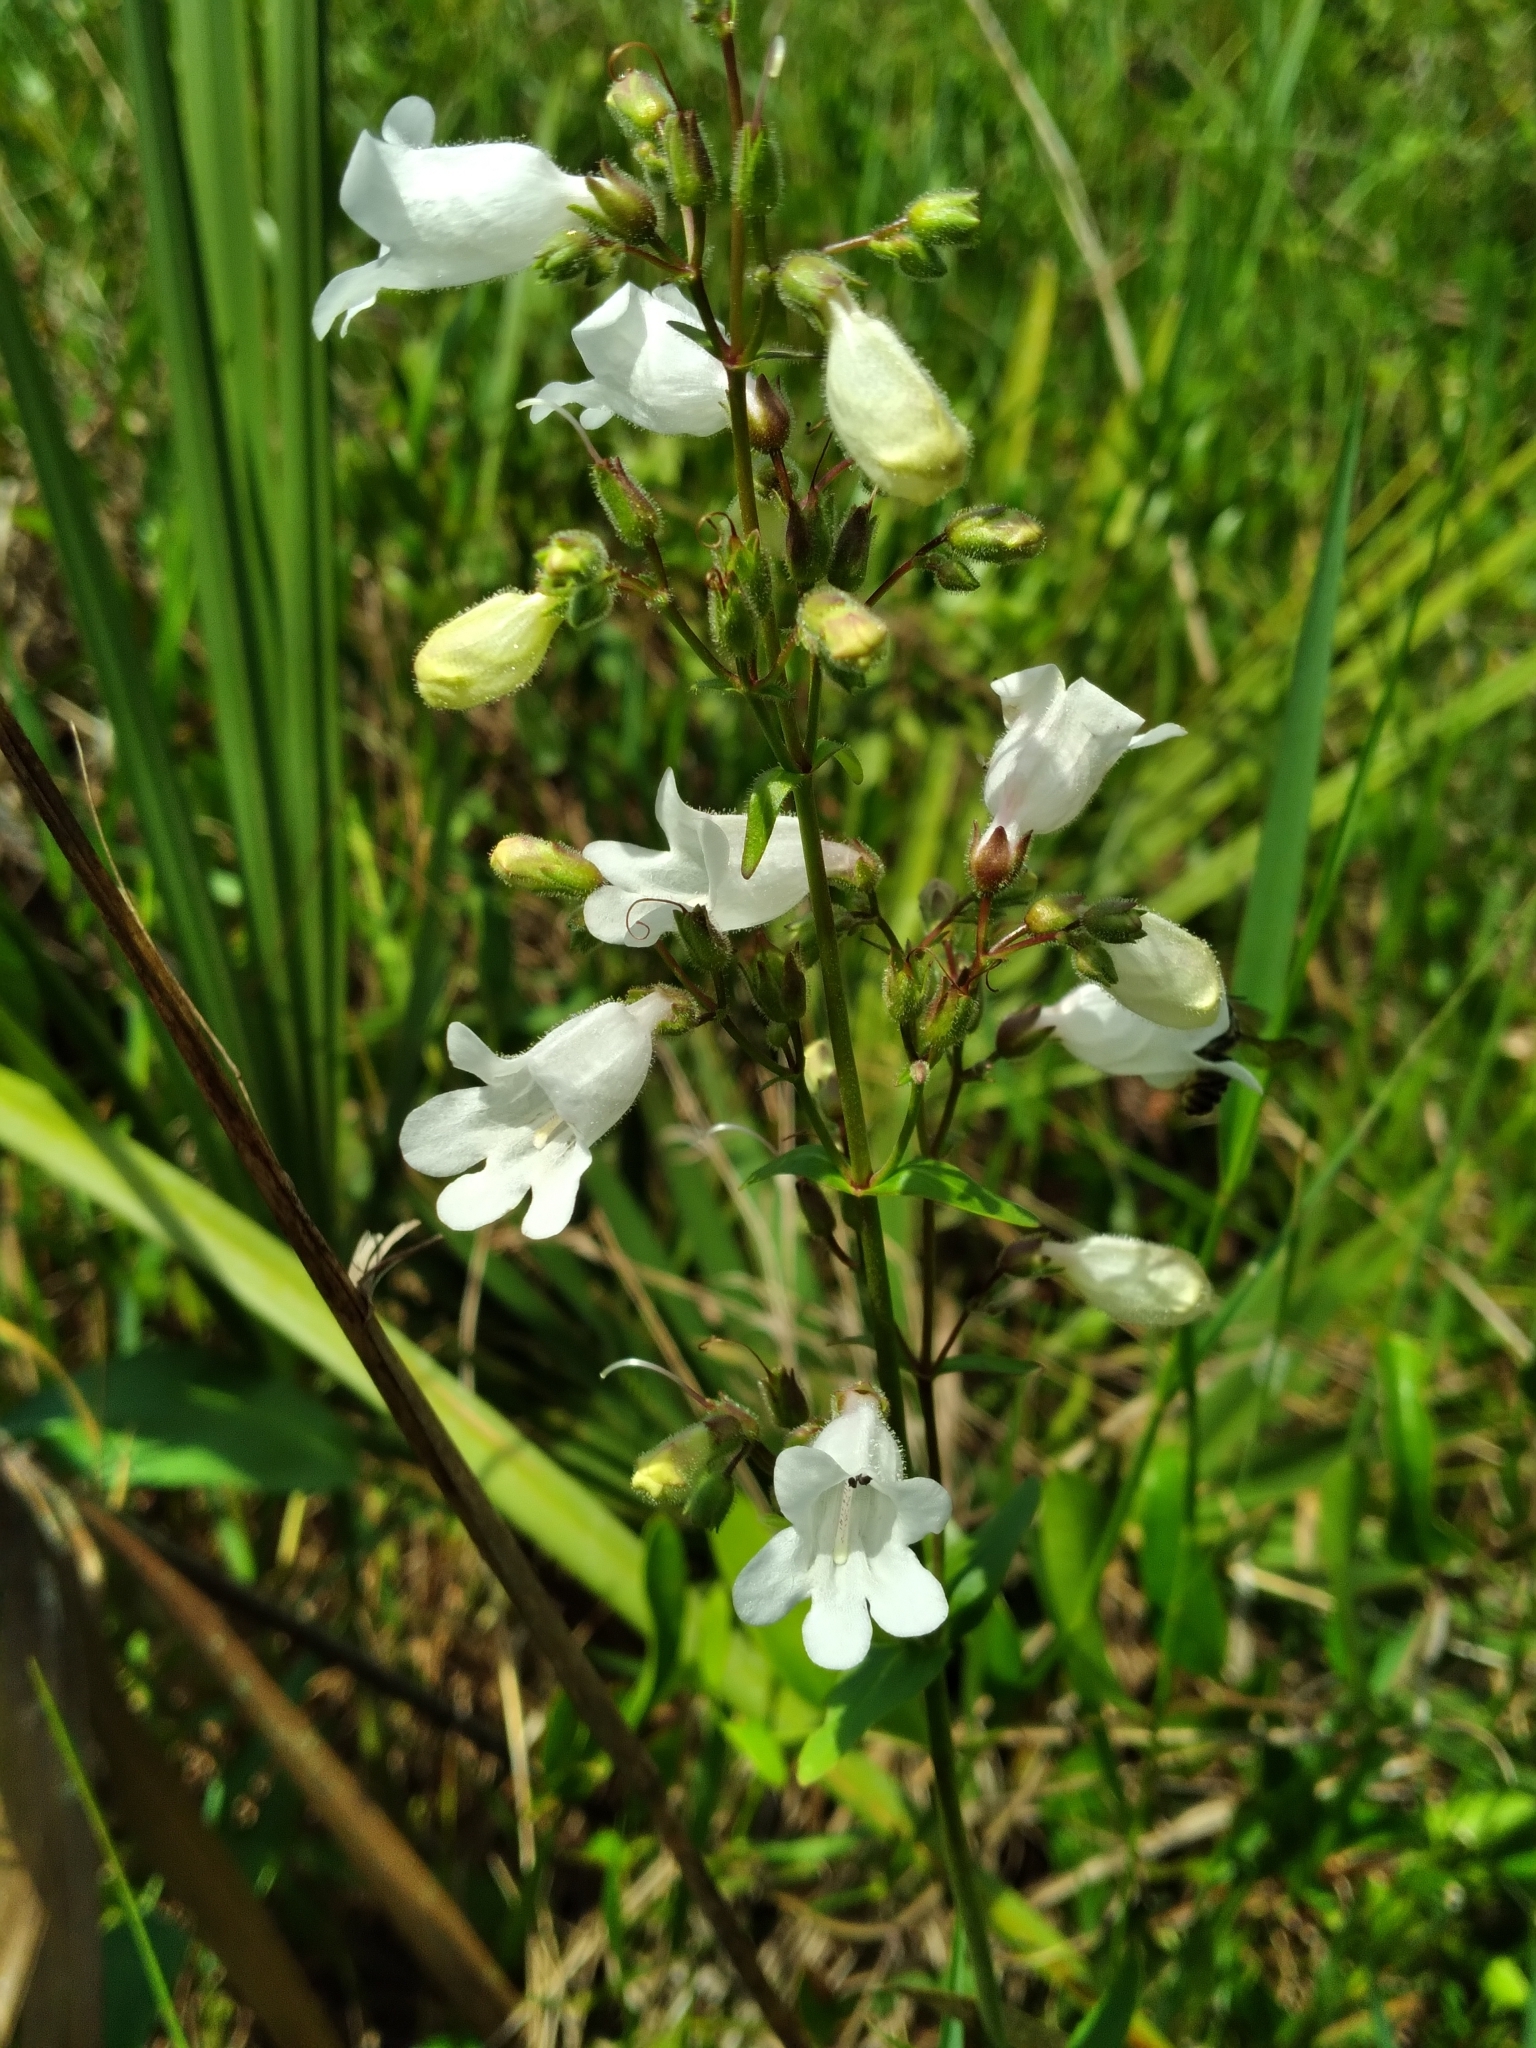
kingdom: Plantae
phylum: Tracheophyta
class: Magnoliopsida
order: Lamiales
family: Plantaginaceae
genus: Penstemon
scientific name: Penstemon multiflorus
